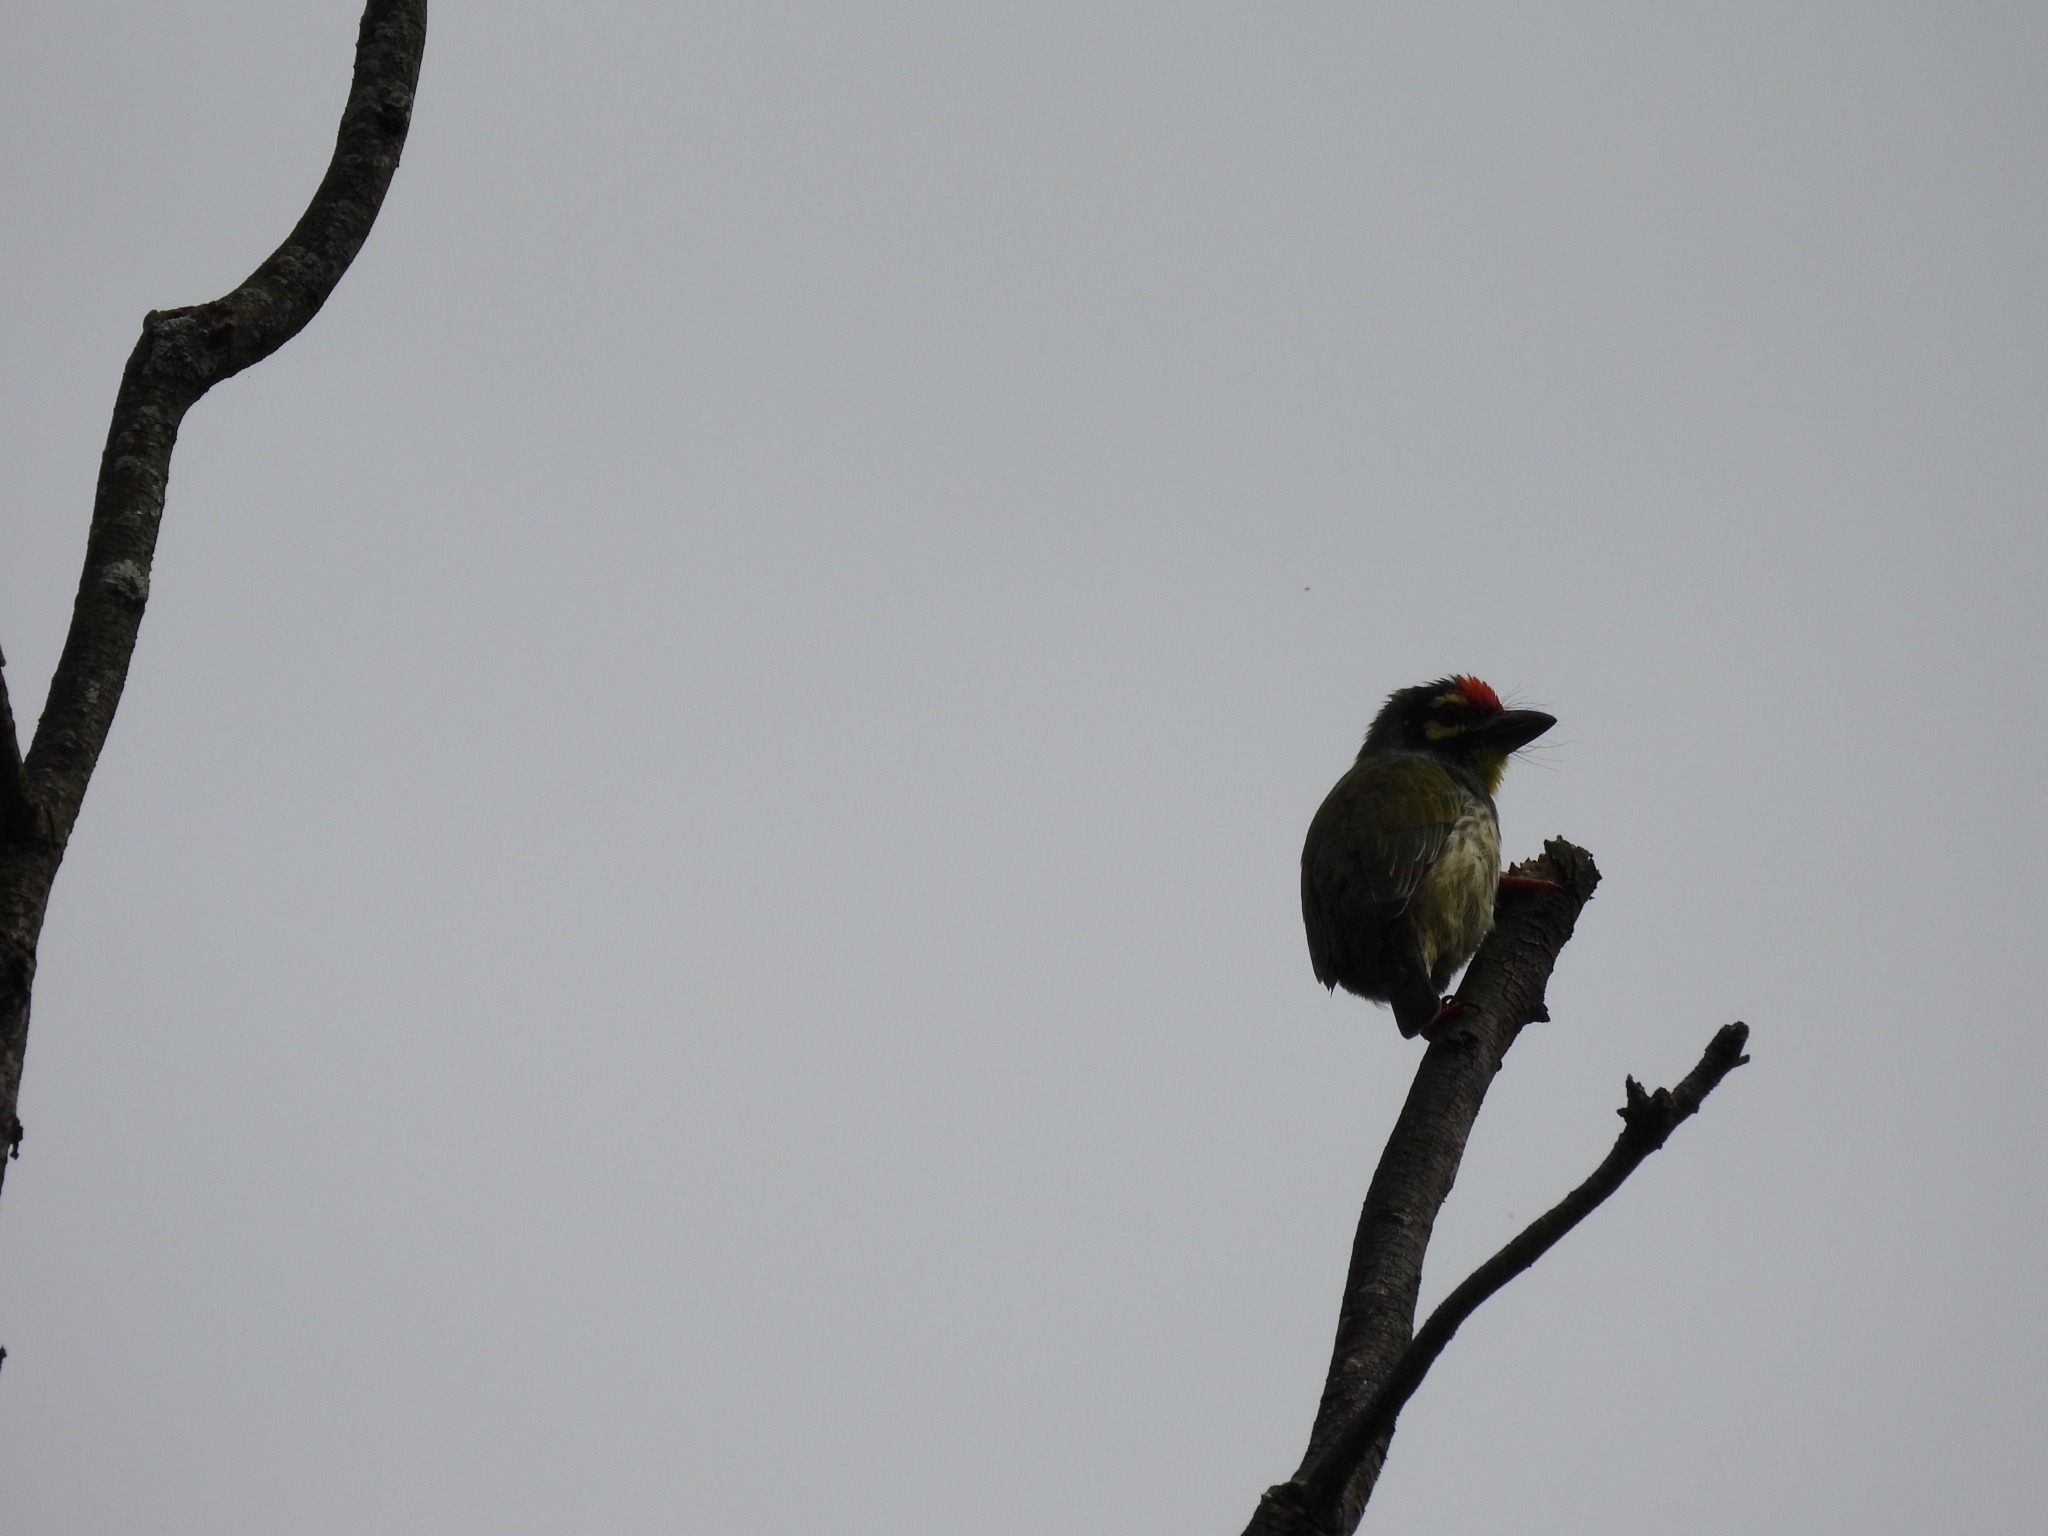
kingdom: Animalia
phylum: Chordata
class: Aves
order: Piciformes
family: Megalaimidae
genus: Psilopogon
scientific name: Psilopogon haemacephalus
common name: Coppersmith barbet
